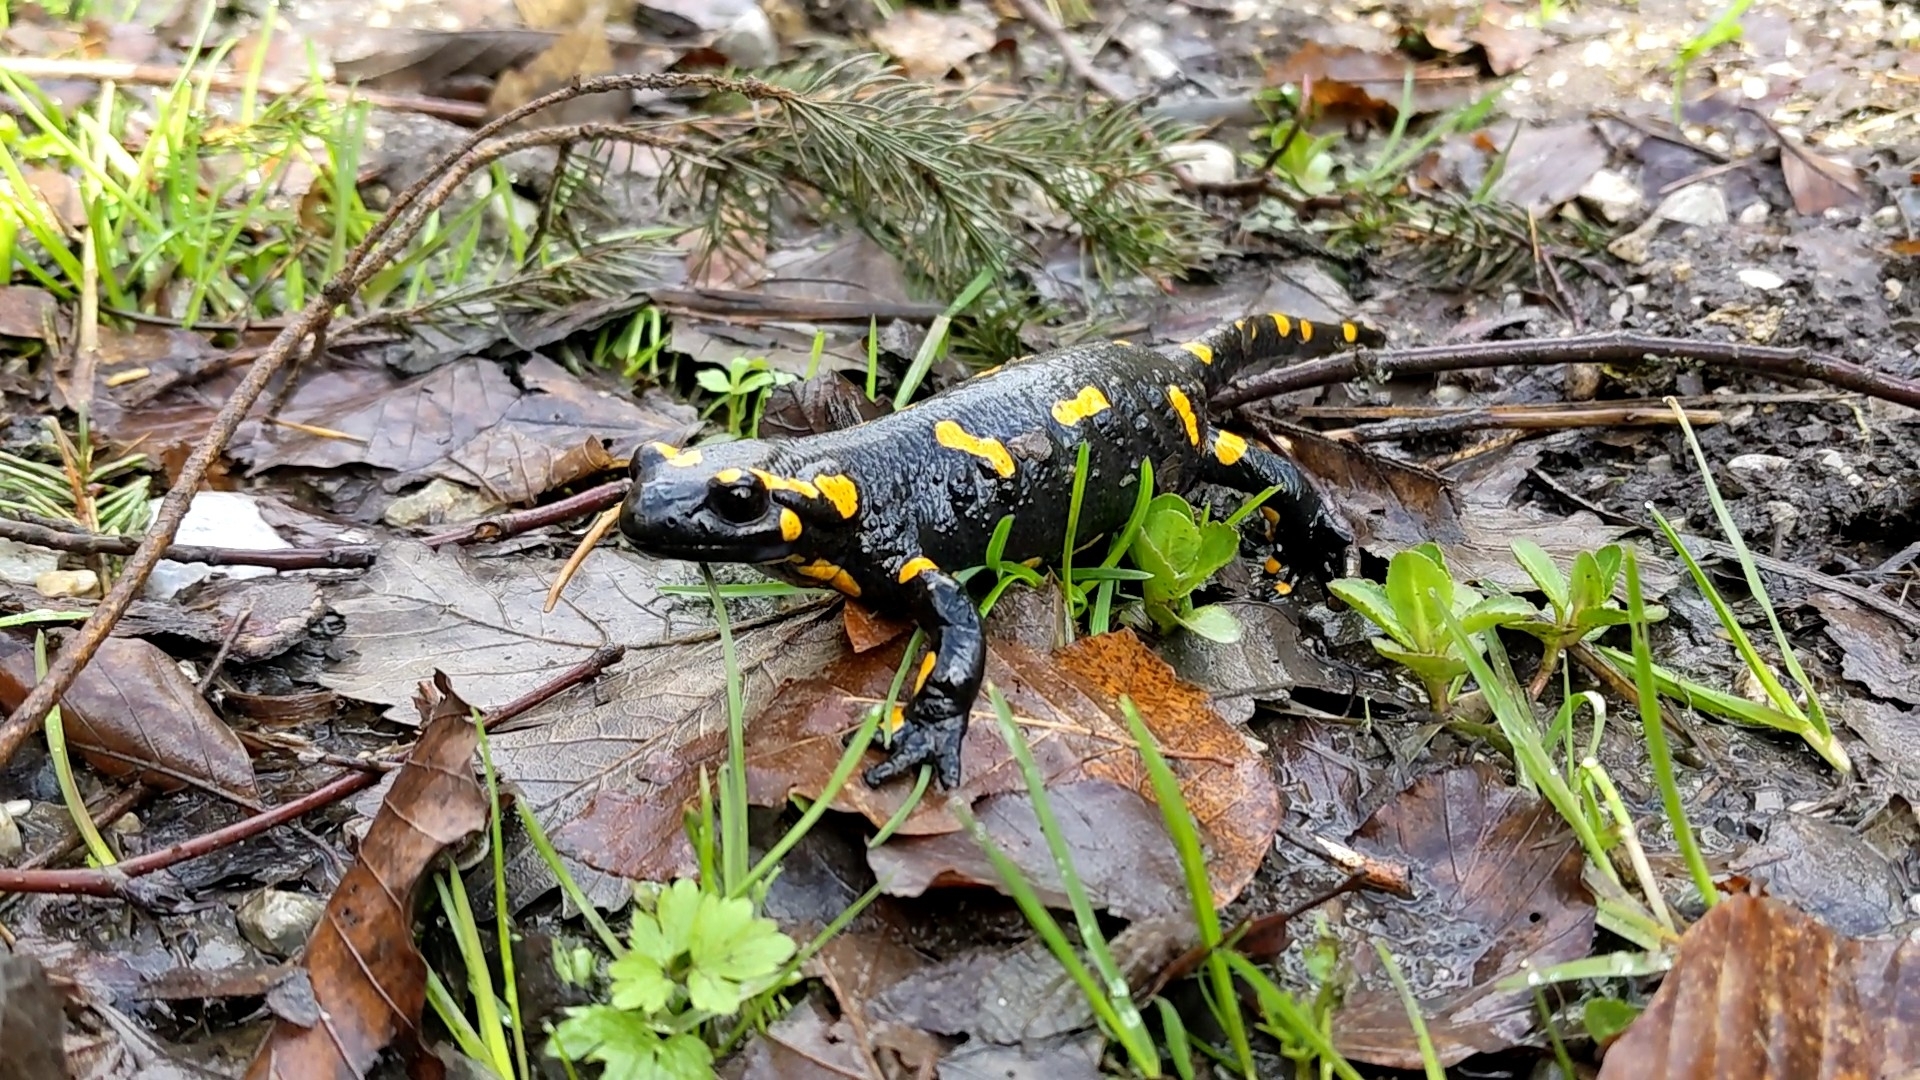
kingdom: Animalia
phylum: Chordata
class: Amphibia
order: Caudata
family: Salamandridae
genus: Salamandra
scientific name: Salamandra salamandra
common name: Fire salamander
